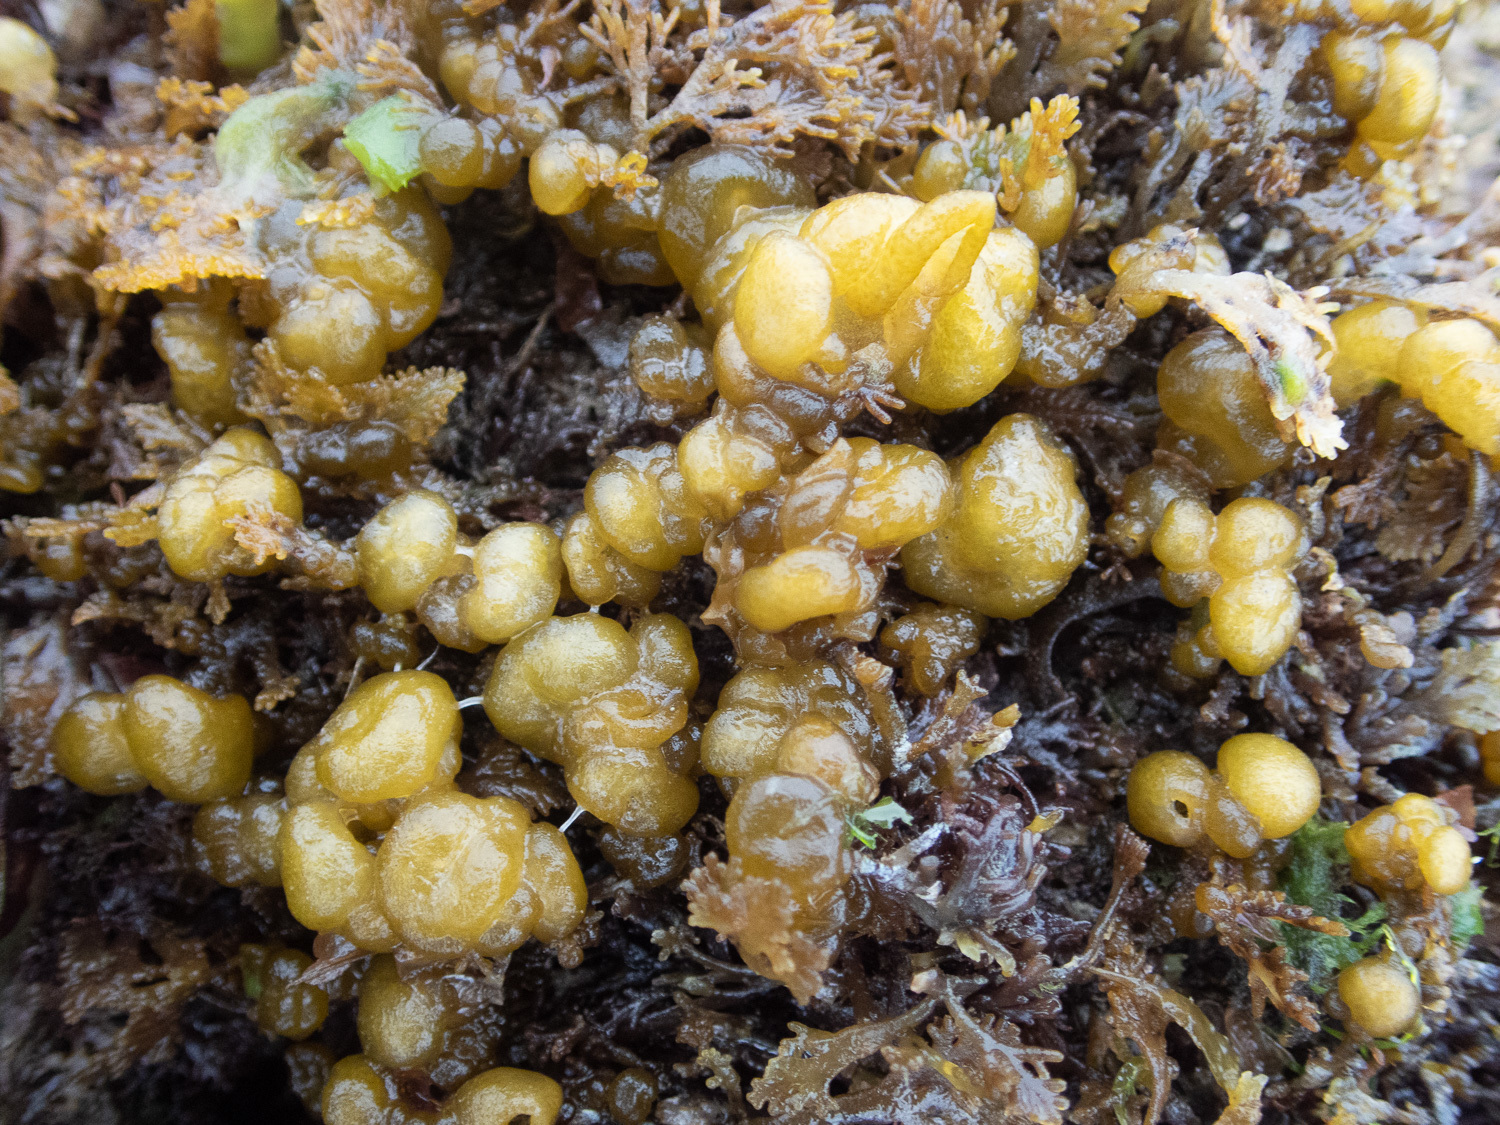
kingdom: Chromista
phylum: Ochrophyta
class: Phaeophyceae
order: Ectocarpales
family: Chordariaceae
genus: Leathesia
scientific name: Leathesia marina
